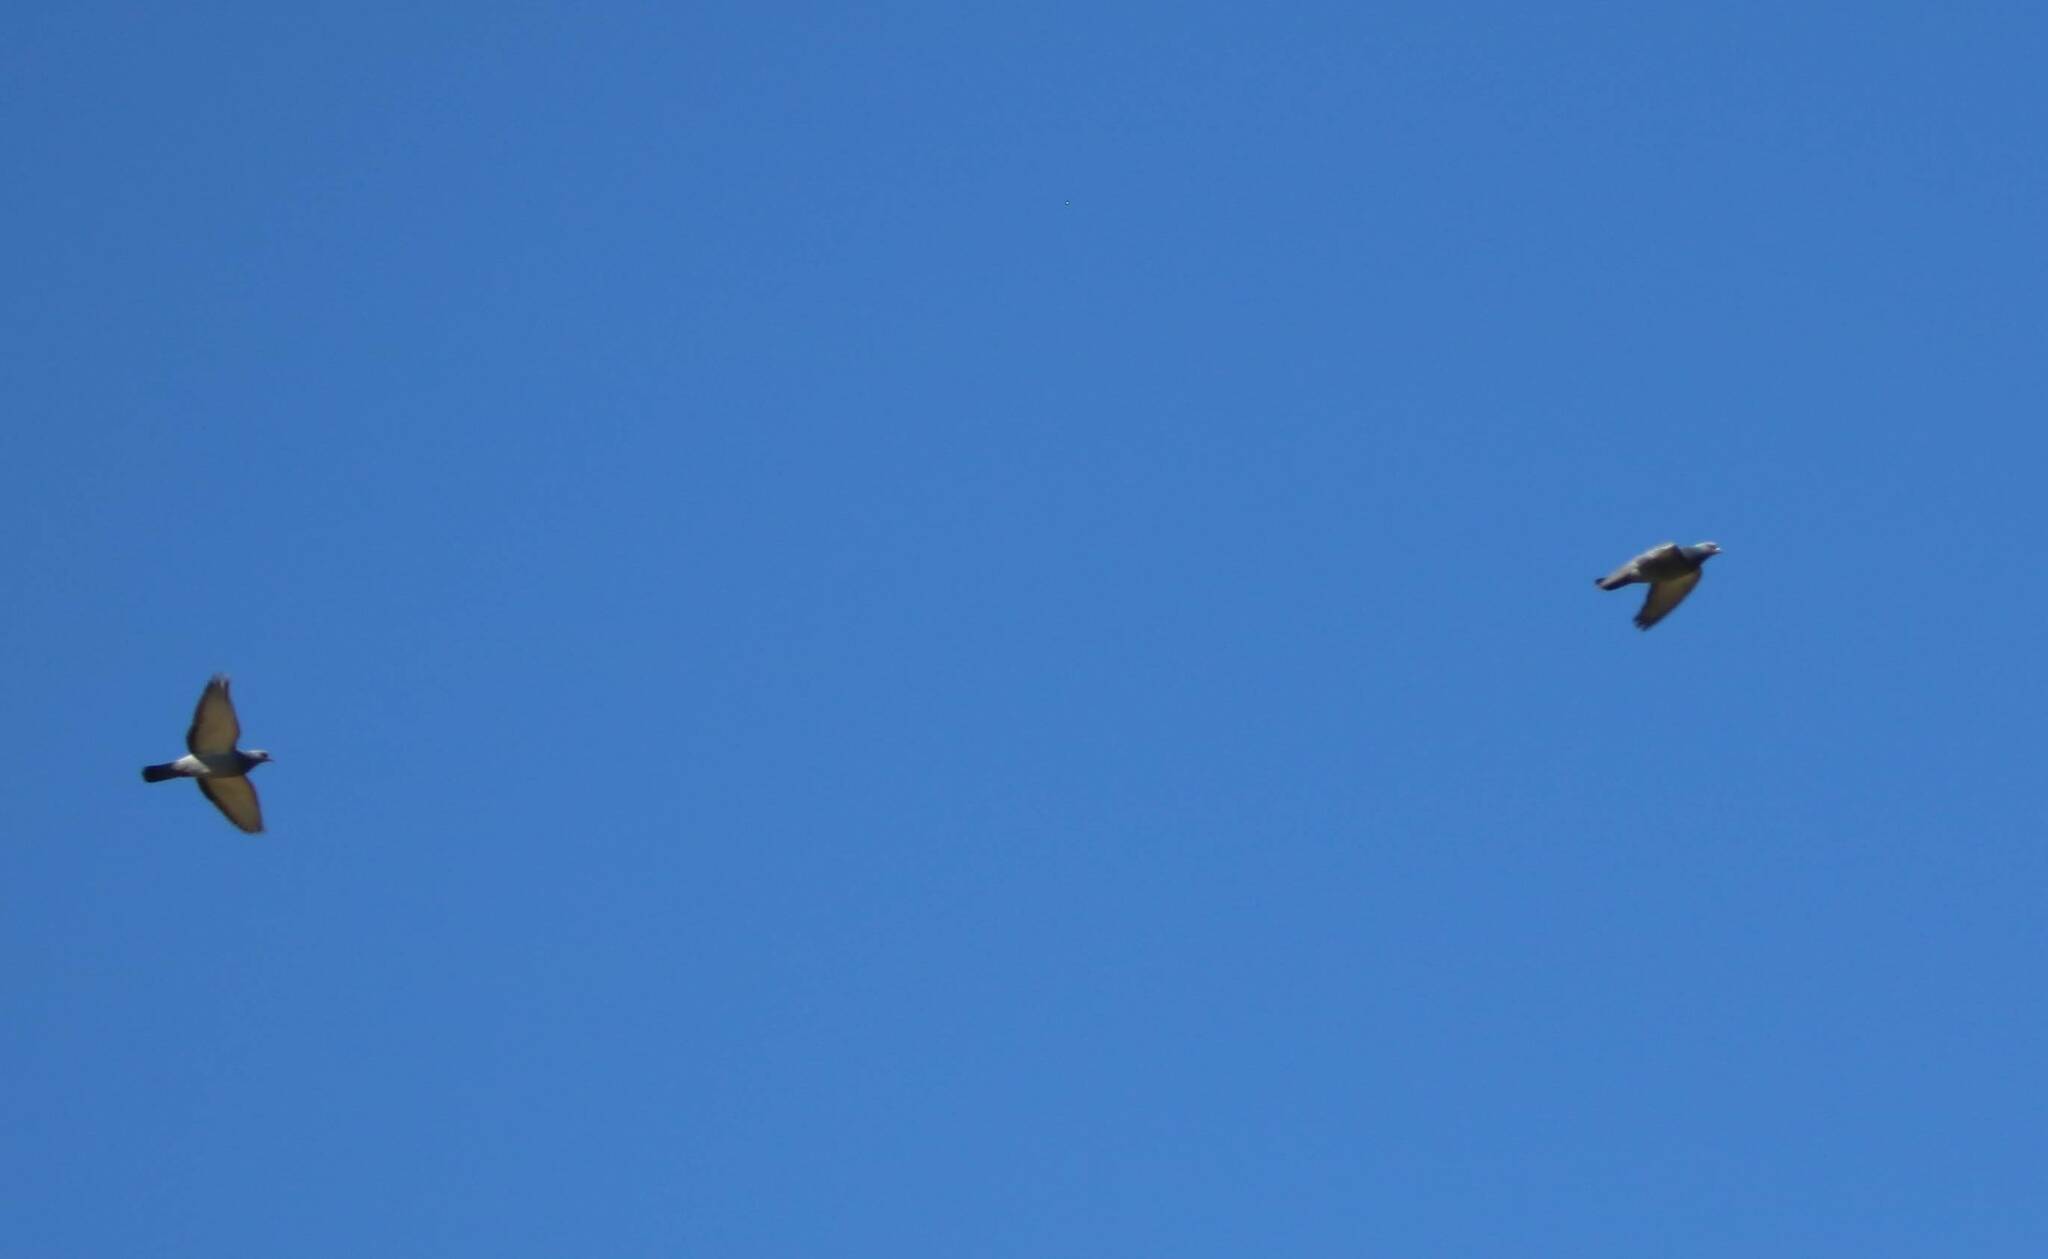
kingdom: Animalia
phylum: Chordata
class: Aves
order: Columbiformes
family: Columbidae
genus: Columba
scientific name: Columba livia
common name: Rock pigeon
